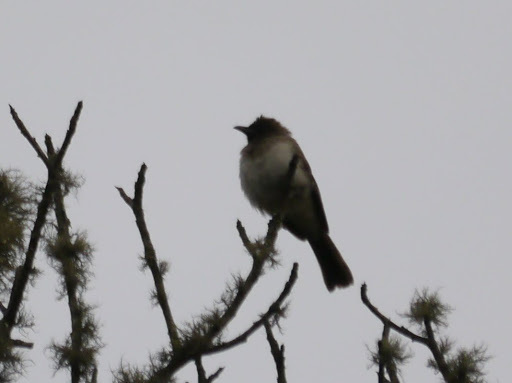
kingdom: Animalia
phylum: Chordata
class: Aves
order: Passeriformes
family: Pycnonotidae
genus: Pycnonotus
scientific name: Pycnonotus barbatus
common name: Common bulbul
